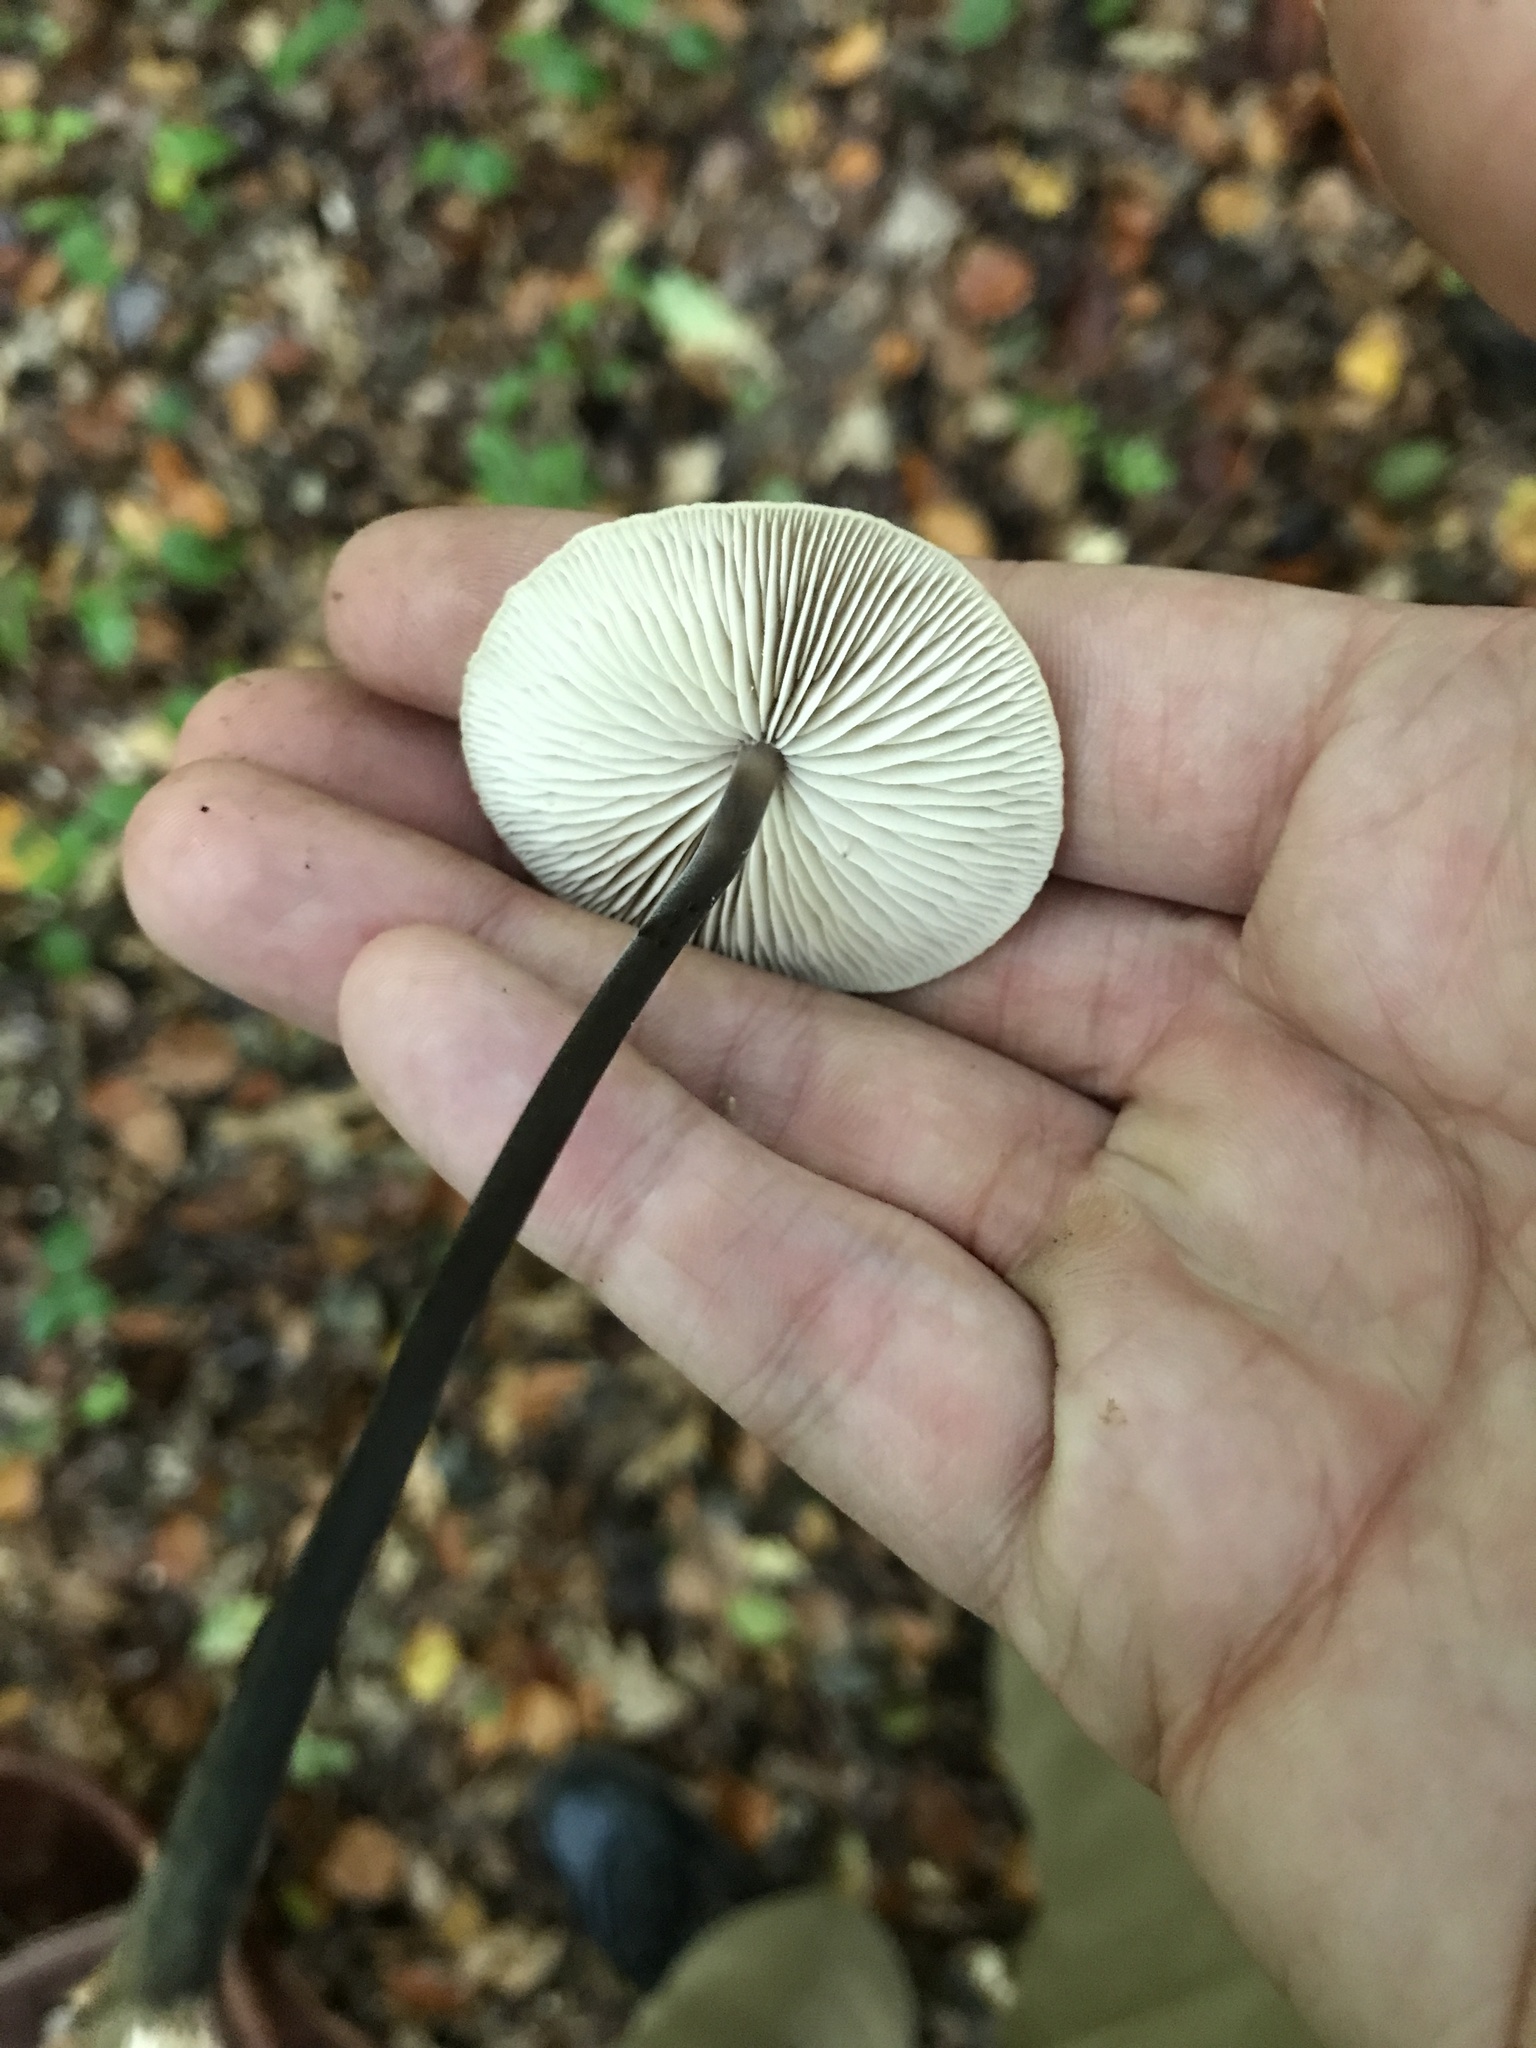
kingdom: Fungi
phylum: Basidiomycota
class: Agaricomycetes
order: Agaricales
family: Omphalotaceae
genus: Mycetinis
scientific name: Mycetinis alliaceus
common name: Garlic parachute
